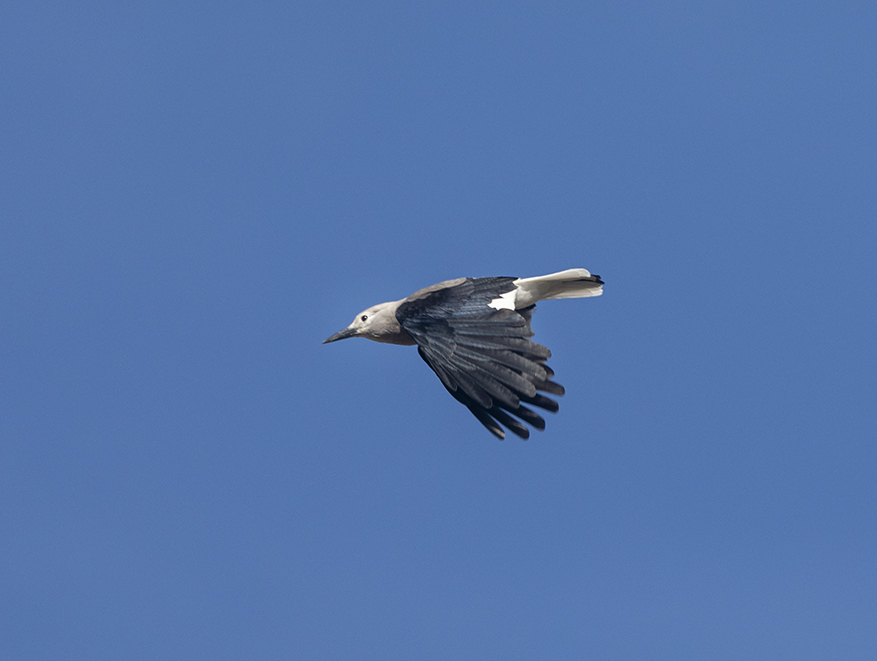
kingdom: Animalia
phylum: Chordata
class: Aves
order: Passeriformes
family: Corvidae
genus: Nucifraga
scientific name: Nucifraga columbiana
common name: Clark's nutcracker
